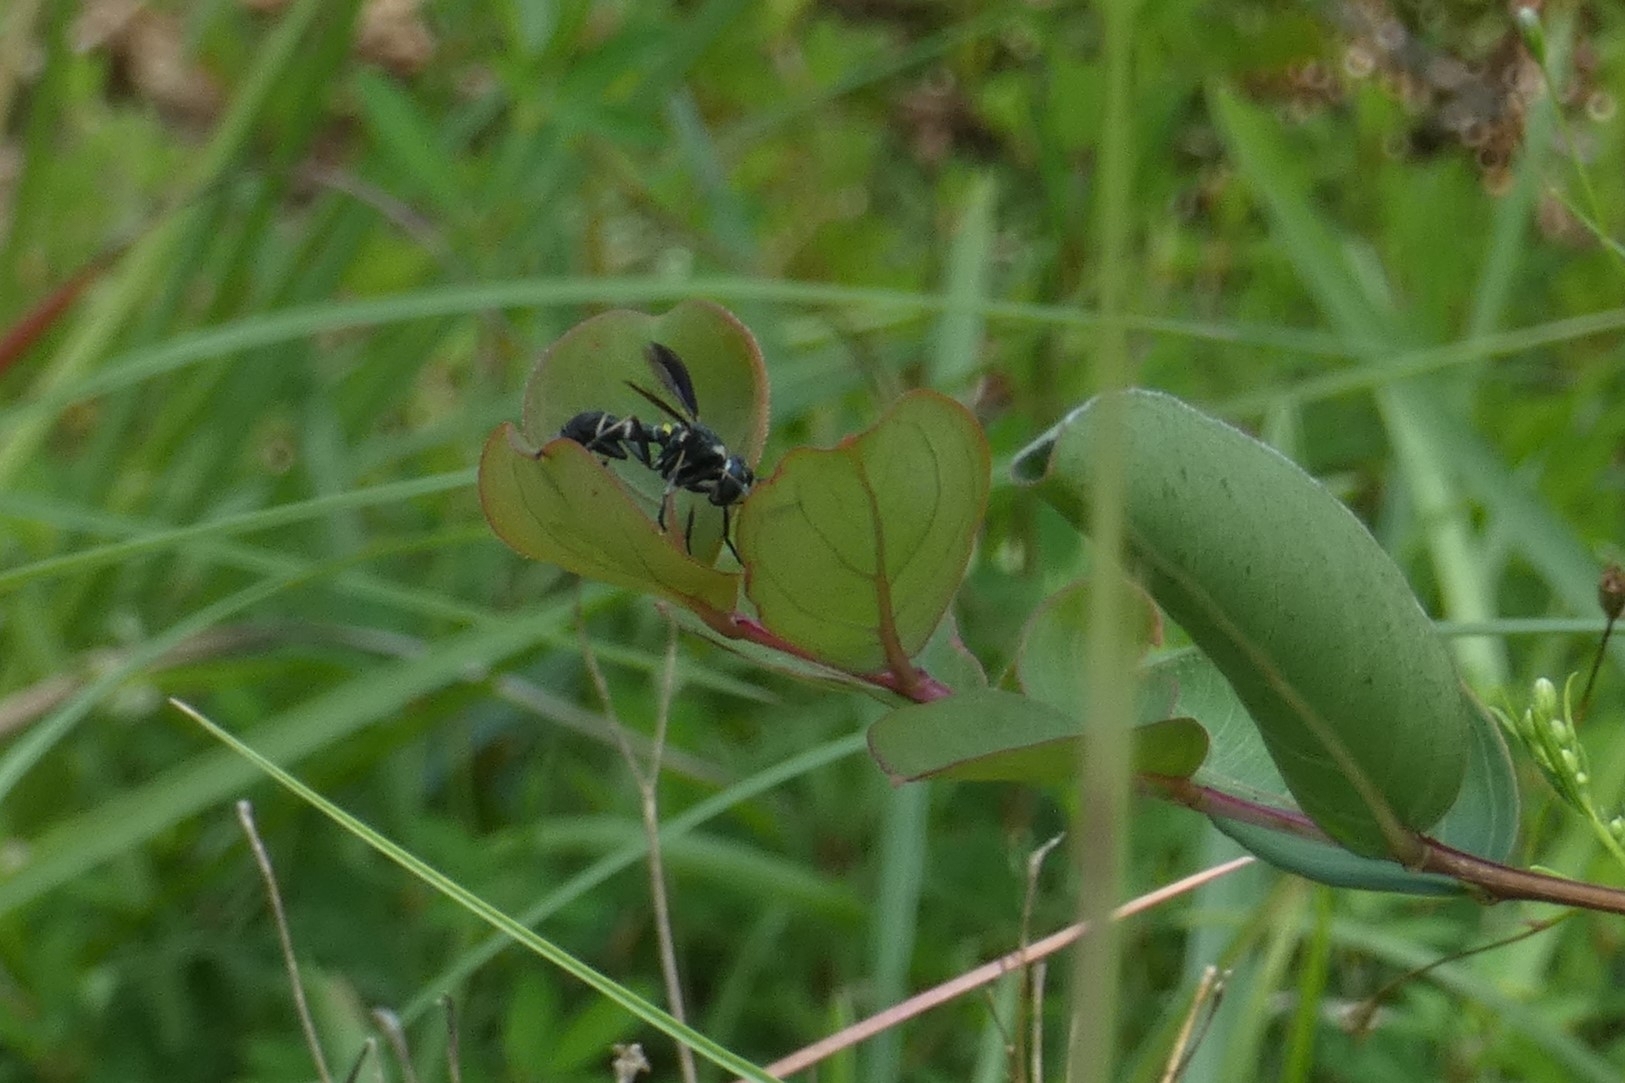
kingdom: Animalia
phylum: Arthropoda
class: Insecta
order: Diptera
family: Conopidae
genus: Physoconops
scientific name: Physoconops bulbirostris
